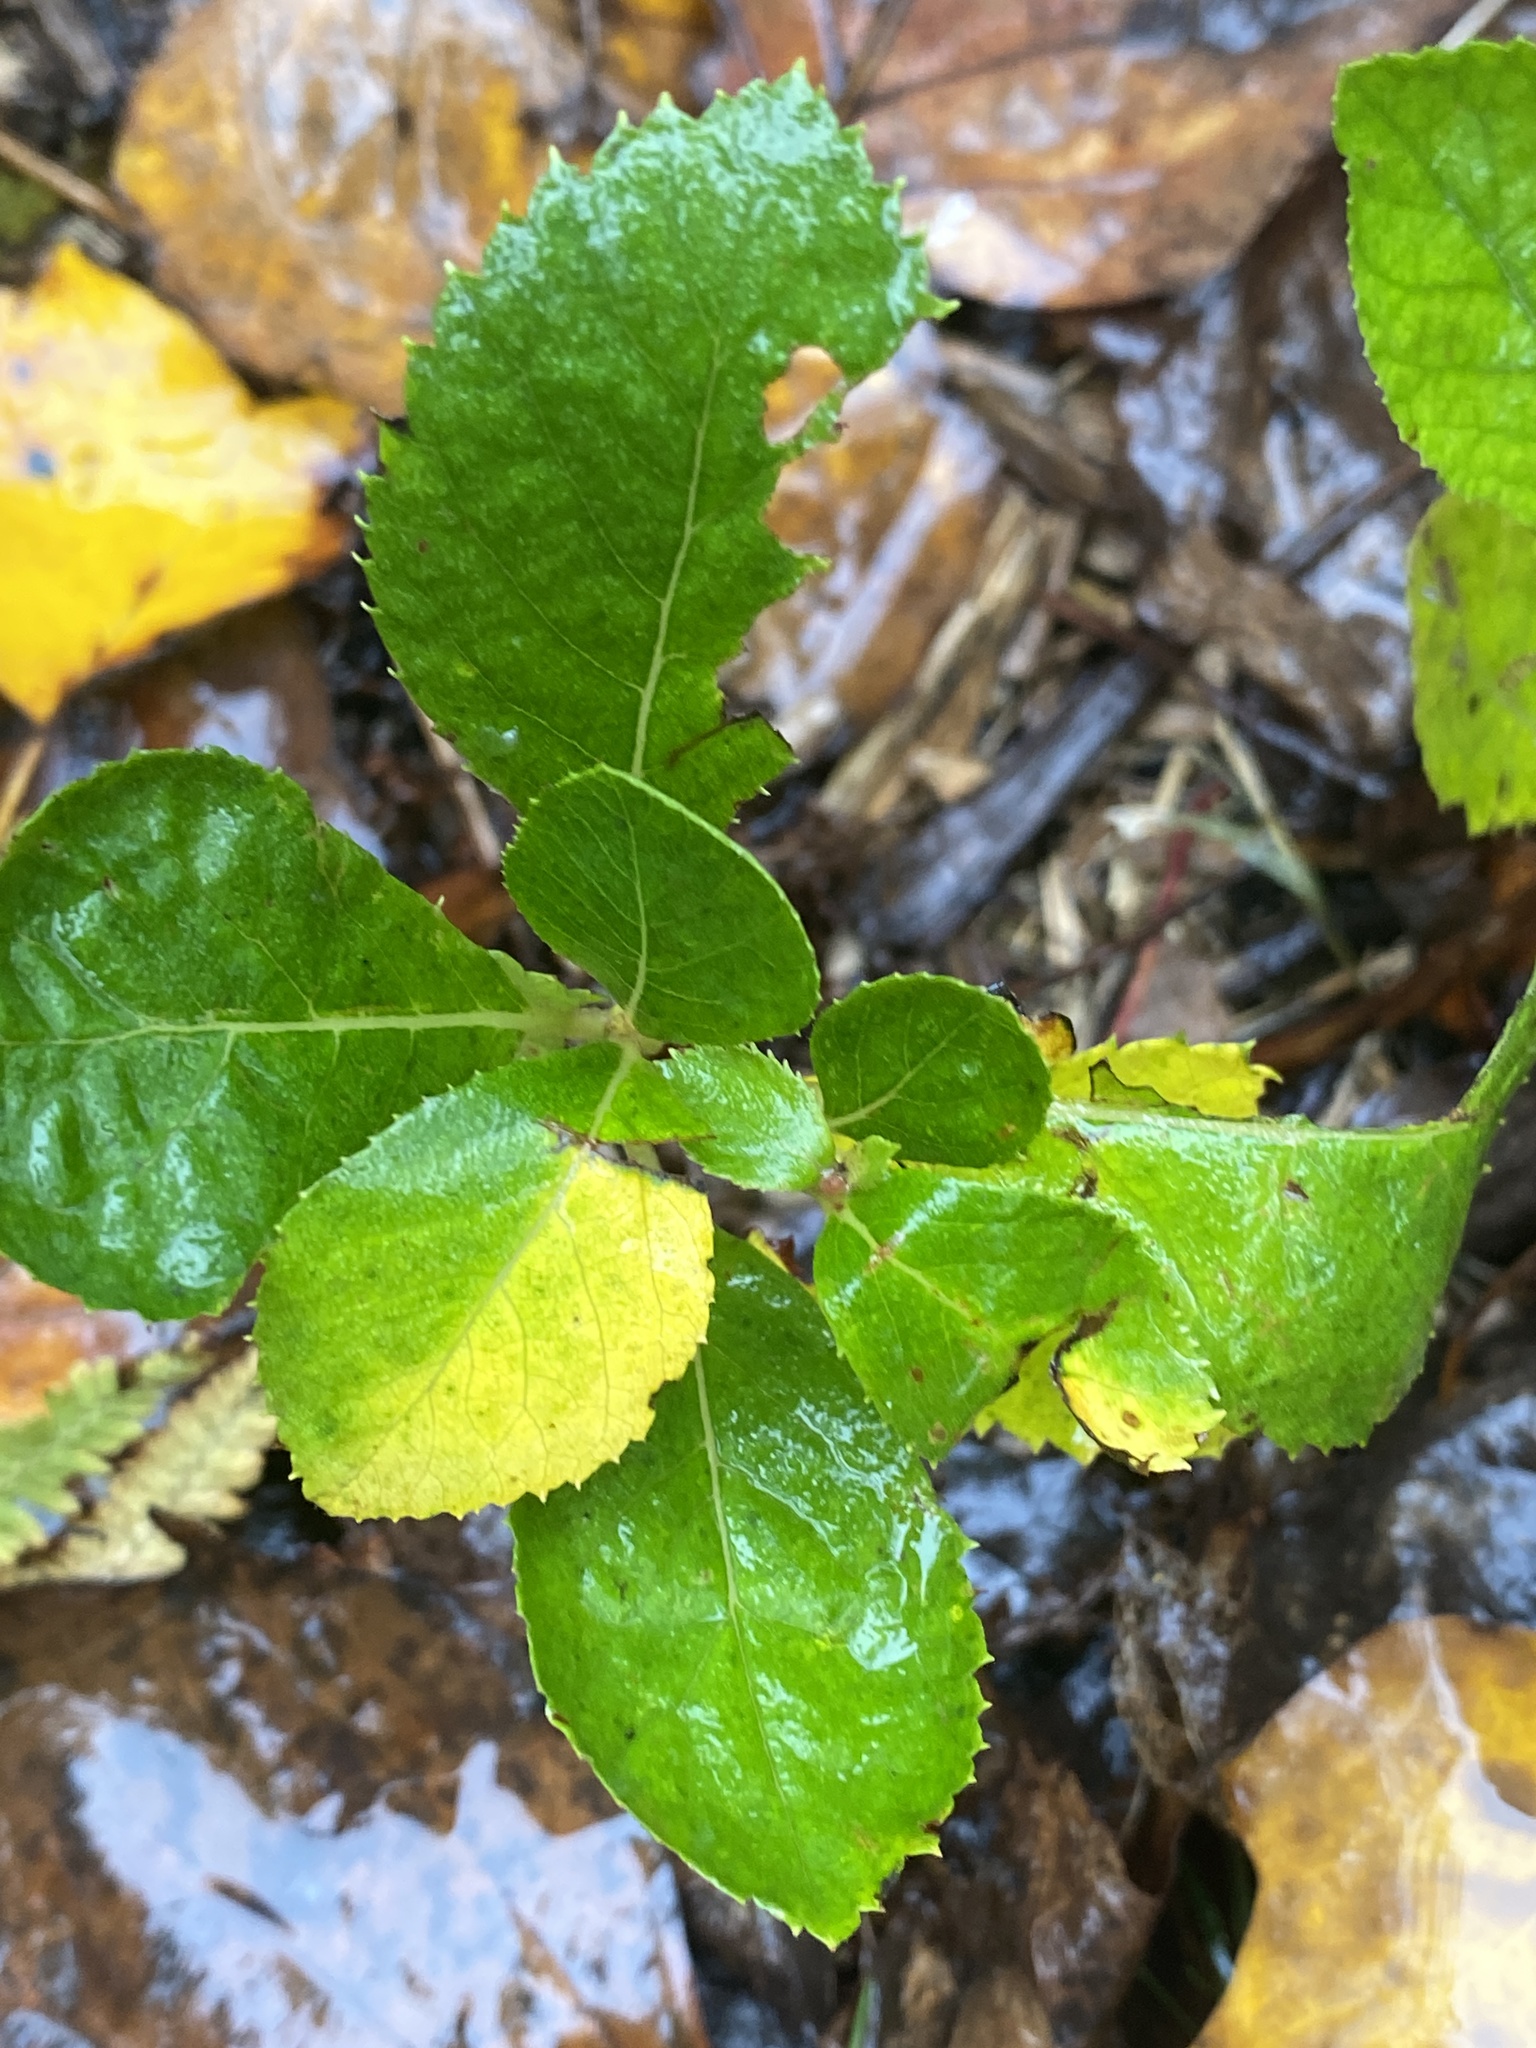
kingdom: Plantae
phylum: Tracheophyta
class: Magnoliopsida
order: Ericales
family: Clethraceae
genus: Clethra
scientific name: Clethra alnifolia
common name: Sweet pepperbush
